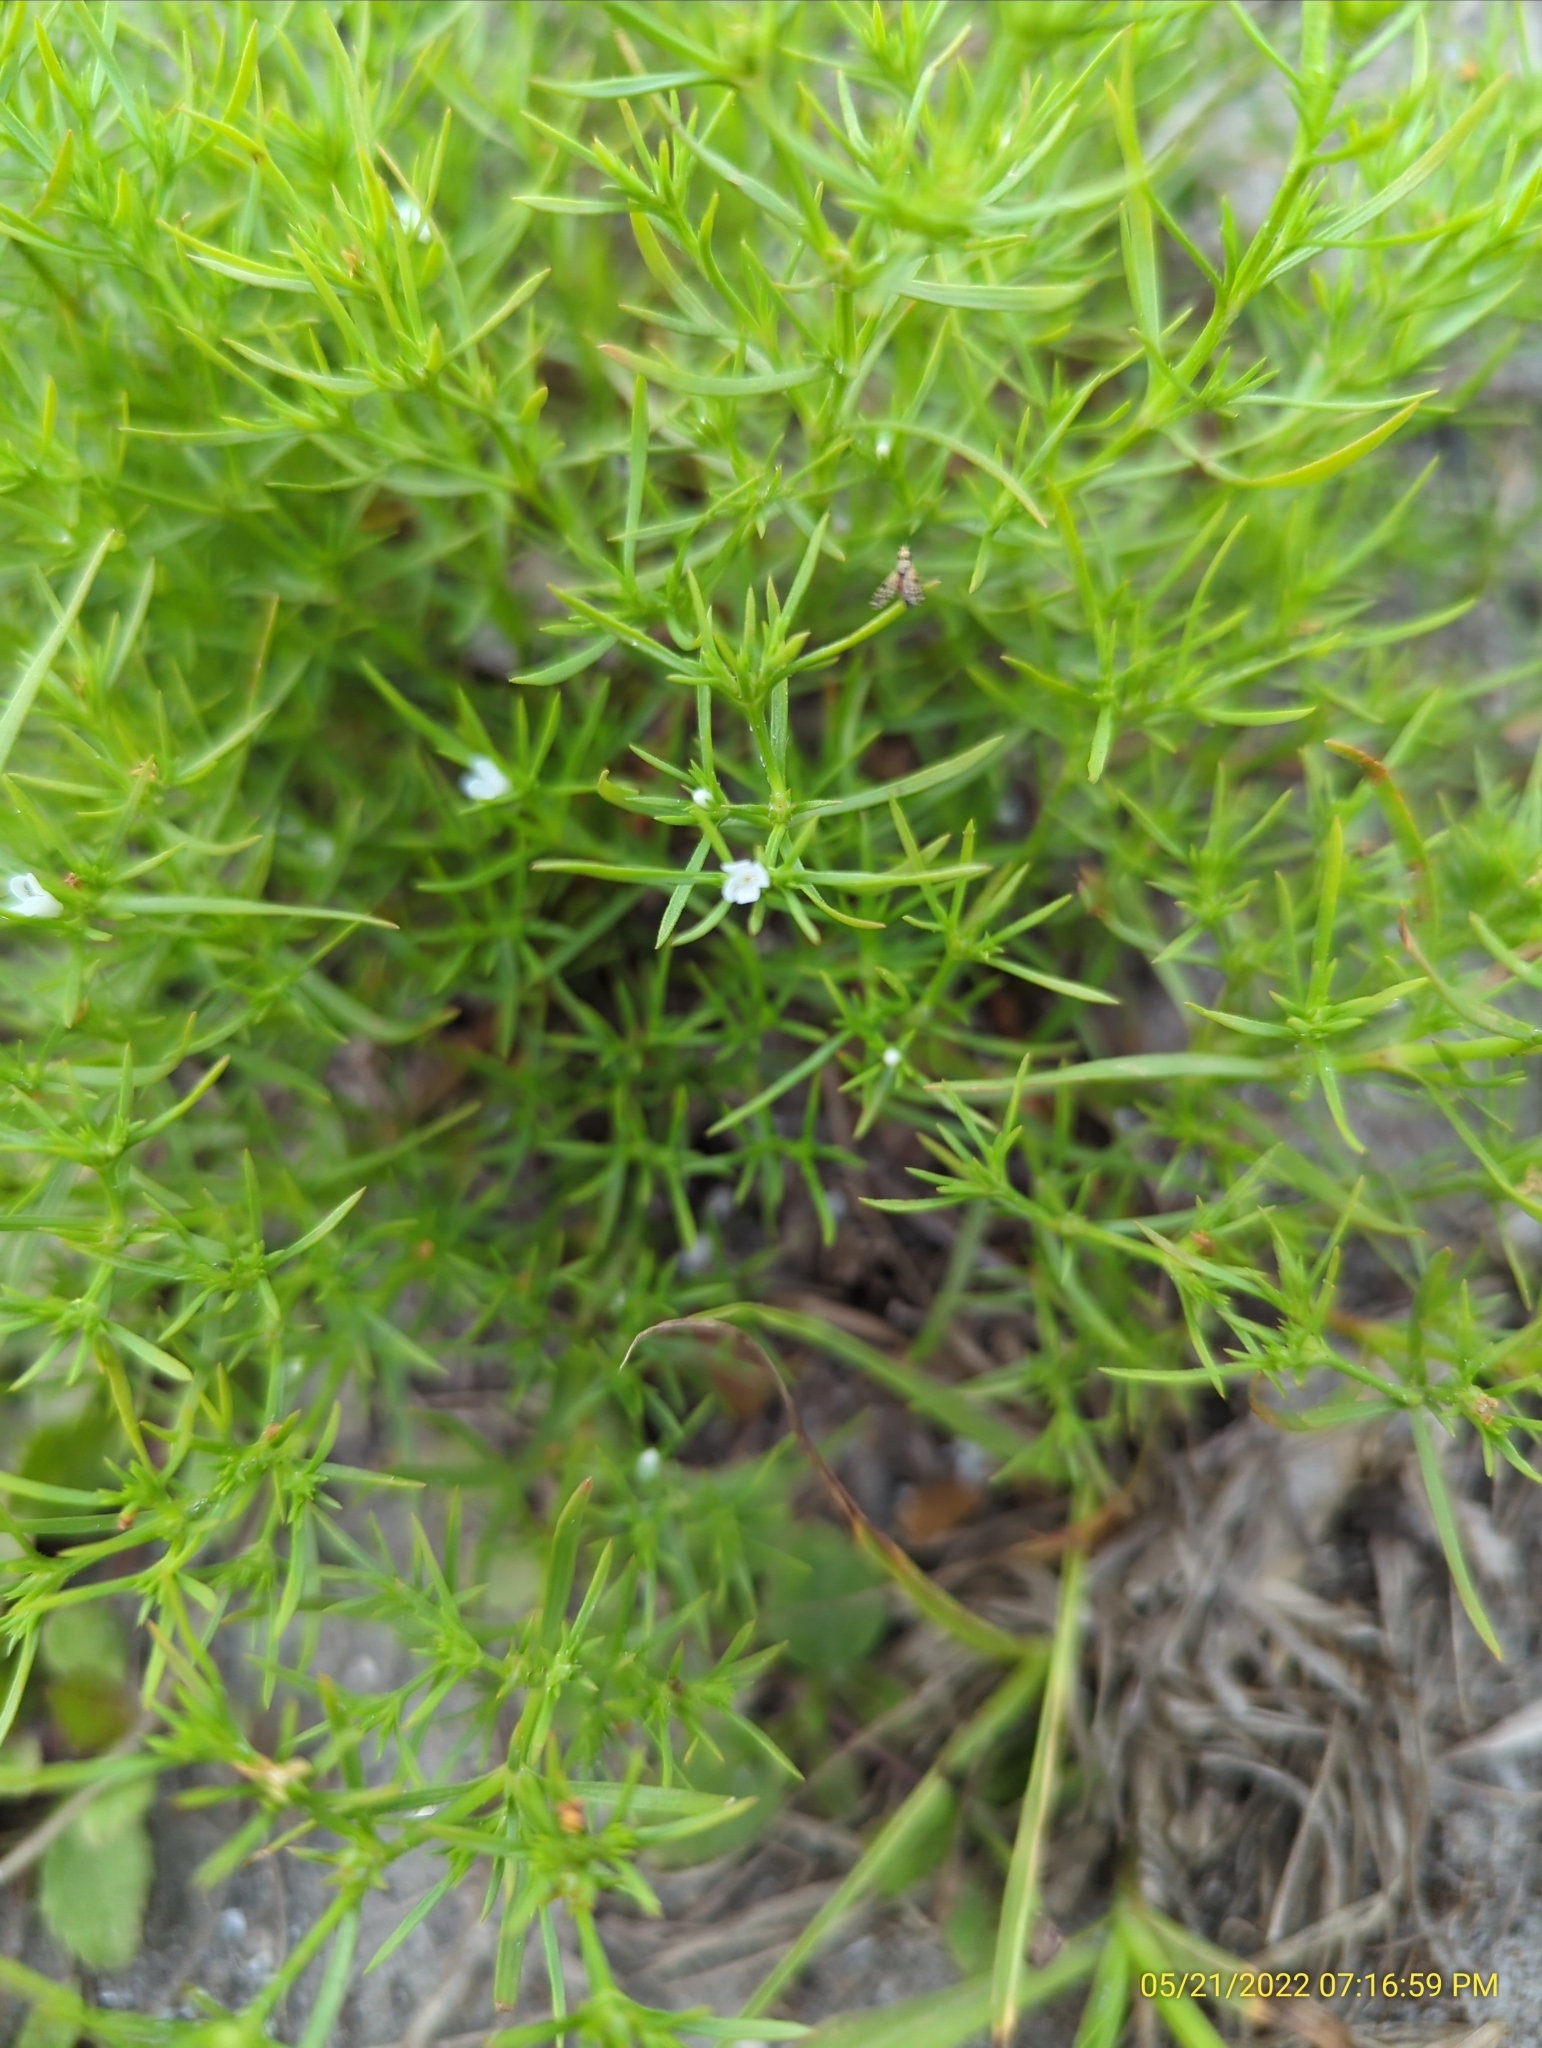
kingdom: Plantae
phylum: Tracheophyta
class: Magnoliopsida
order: Lamiales
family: Tetrachondraceae
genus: Polypremum
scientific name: Polypremum procumbens
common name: Juniper-leaf
